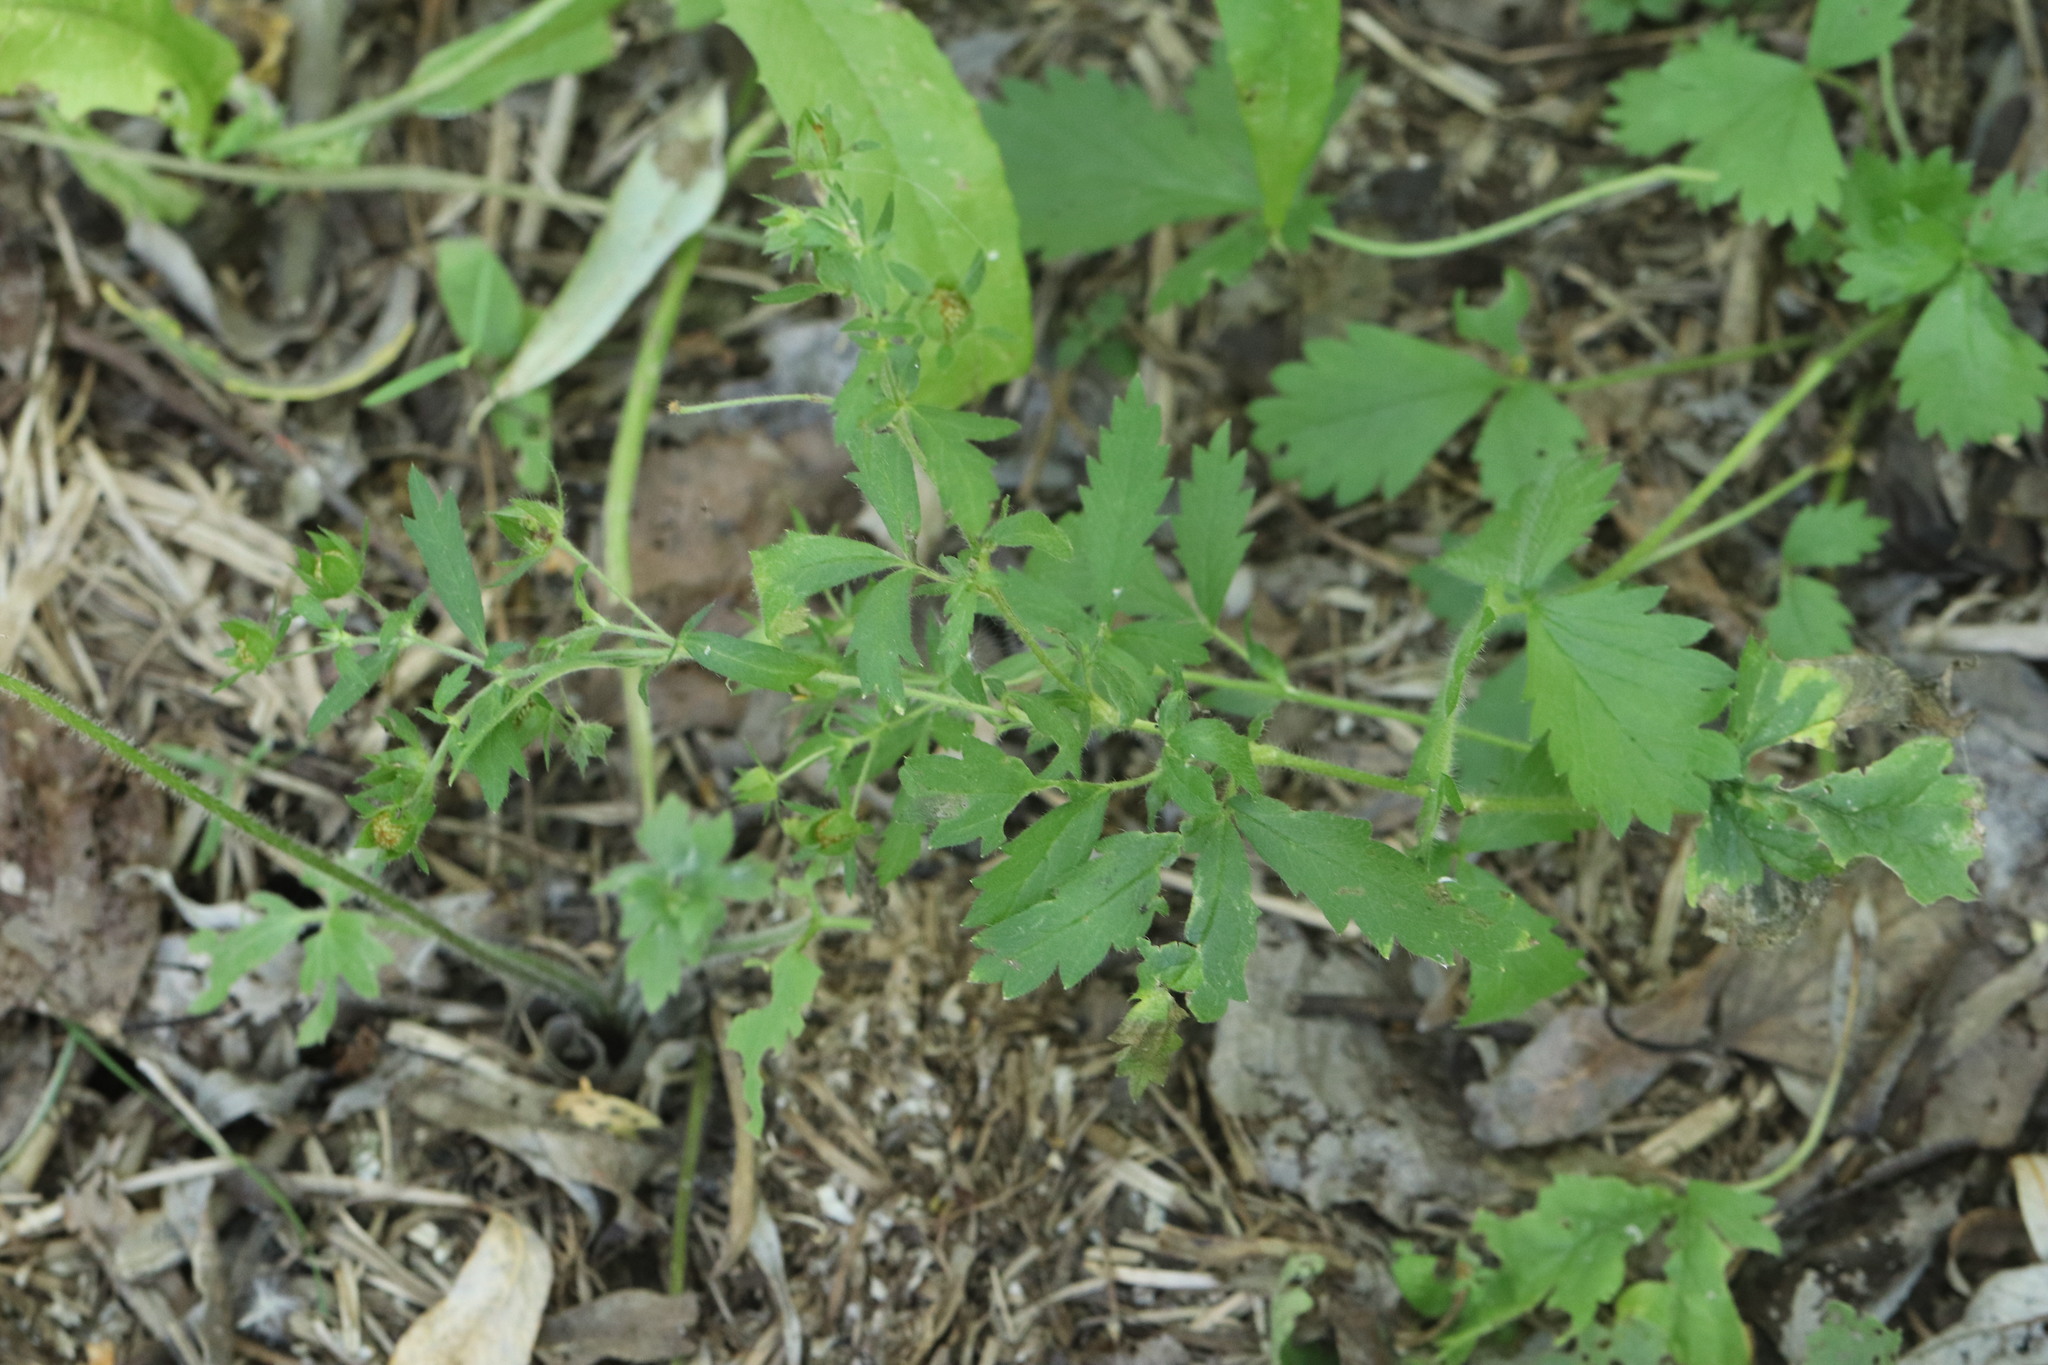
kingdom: Plantae
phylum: Tracheophyta
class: Magnoliopsida
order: Rosales
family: Rosaceae
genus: Potentilla
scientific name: Potentilla norvegica
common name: Ternate-leaved cinquefoil
